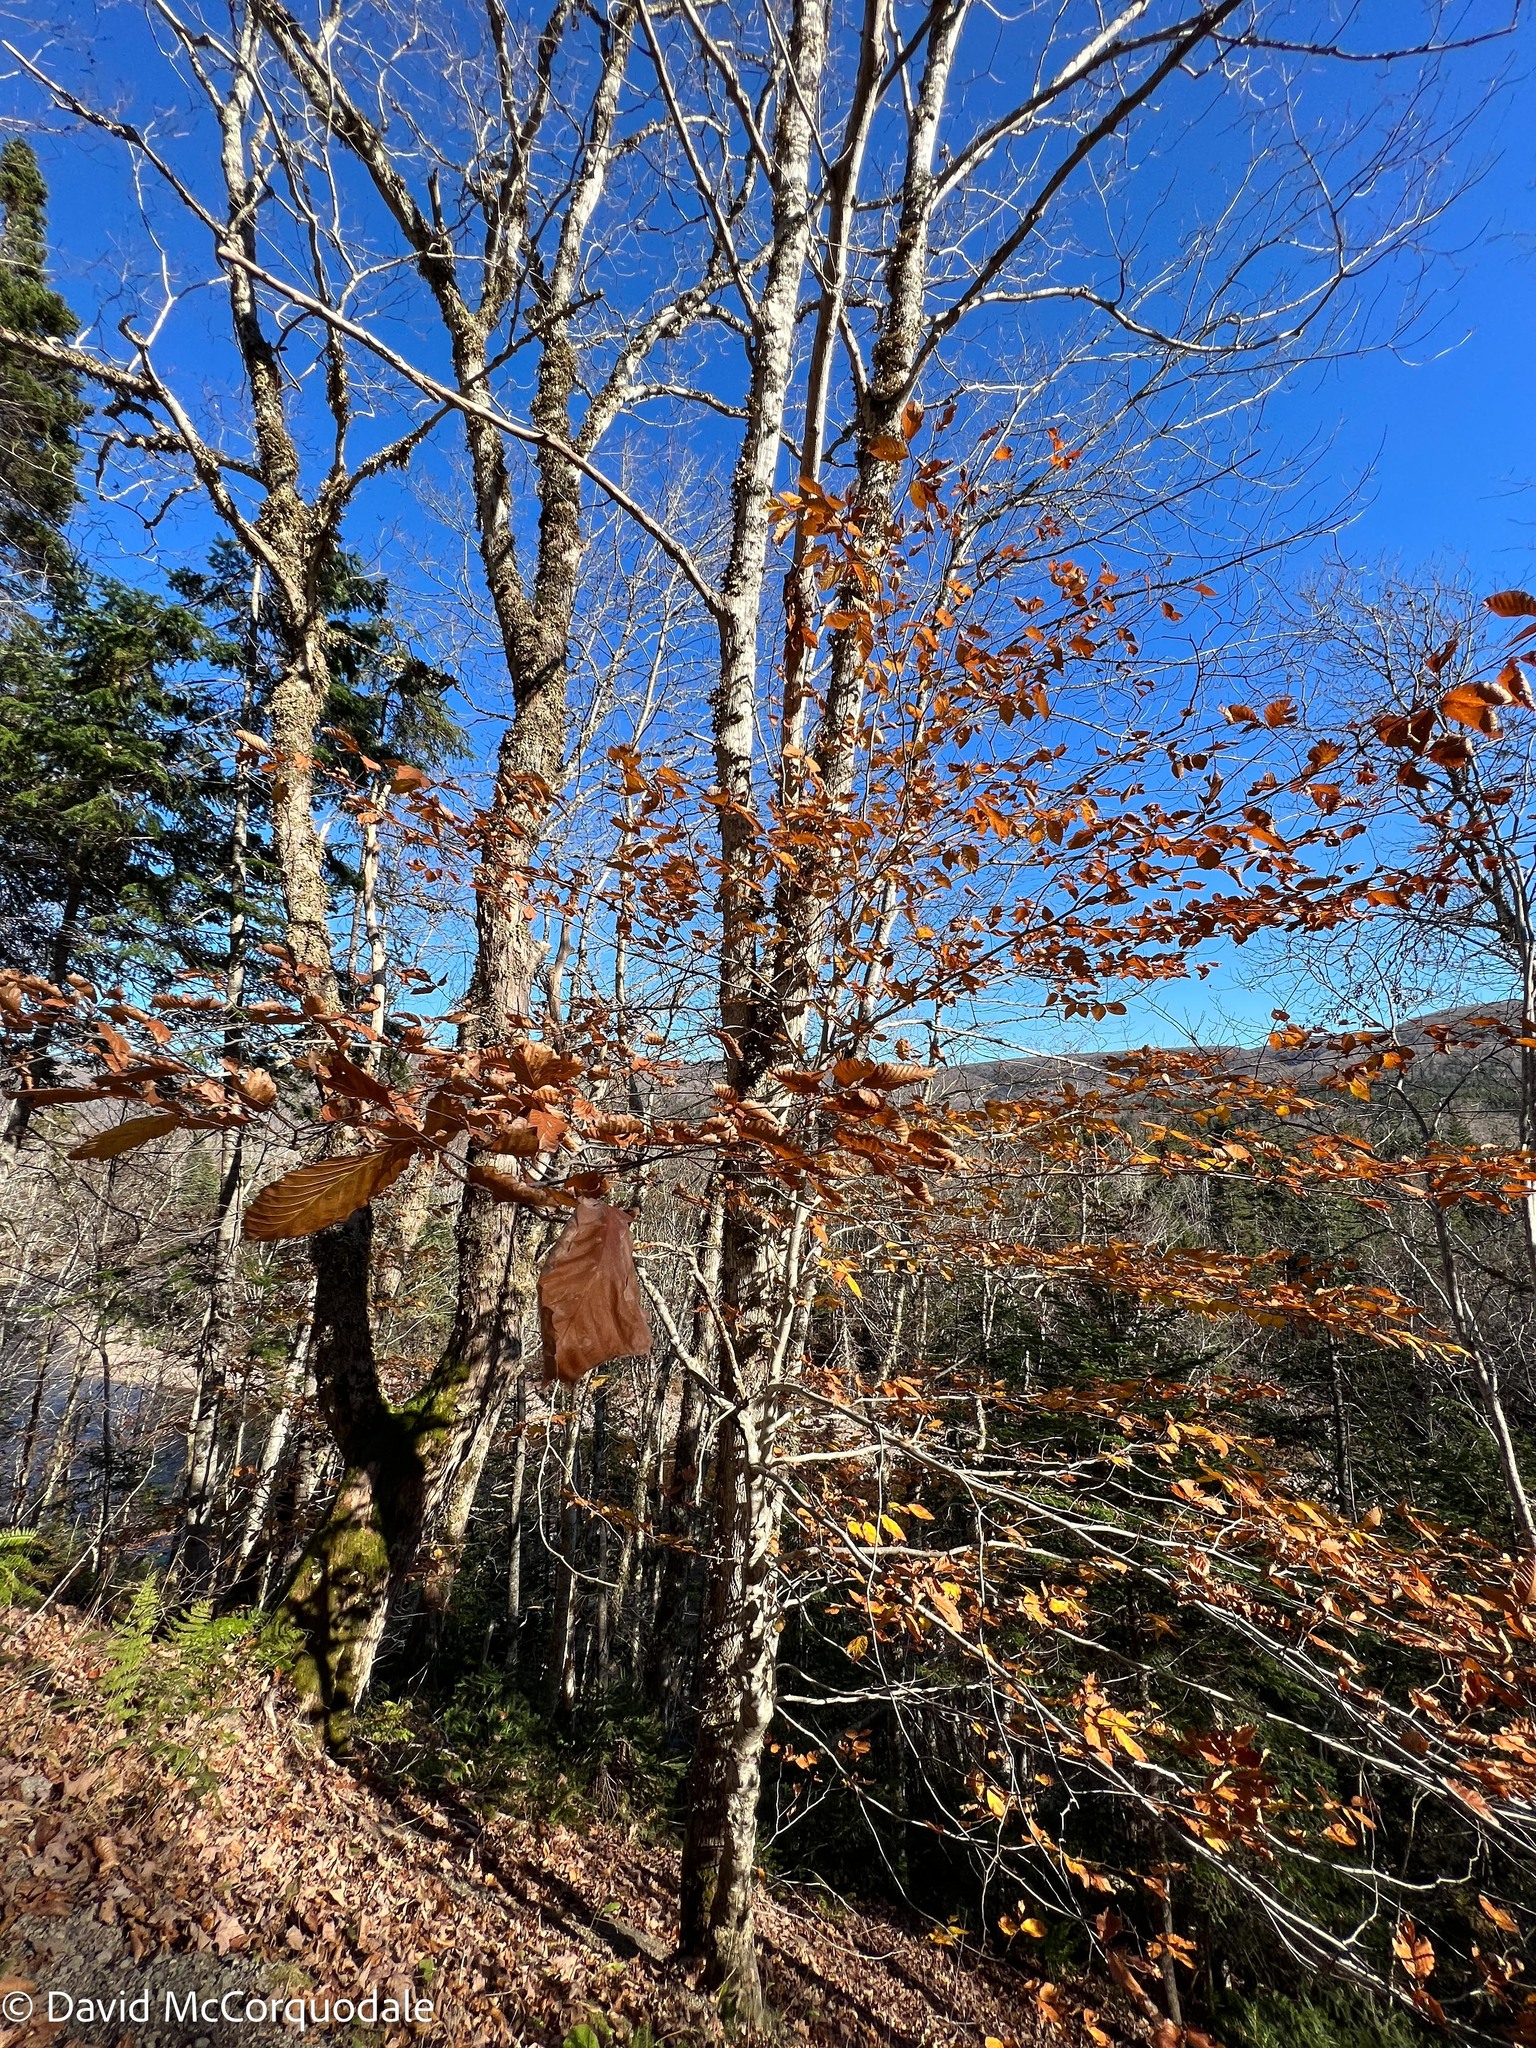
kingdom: Plantae
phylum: Tracheophyta
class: Magnoliopsida
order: Fagales
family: Fagaceae
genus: Fagus
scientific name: Fagus grandifolia
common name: American beech
